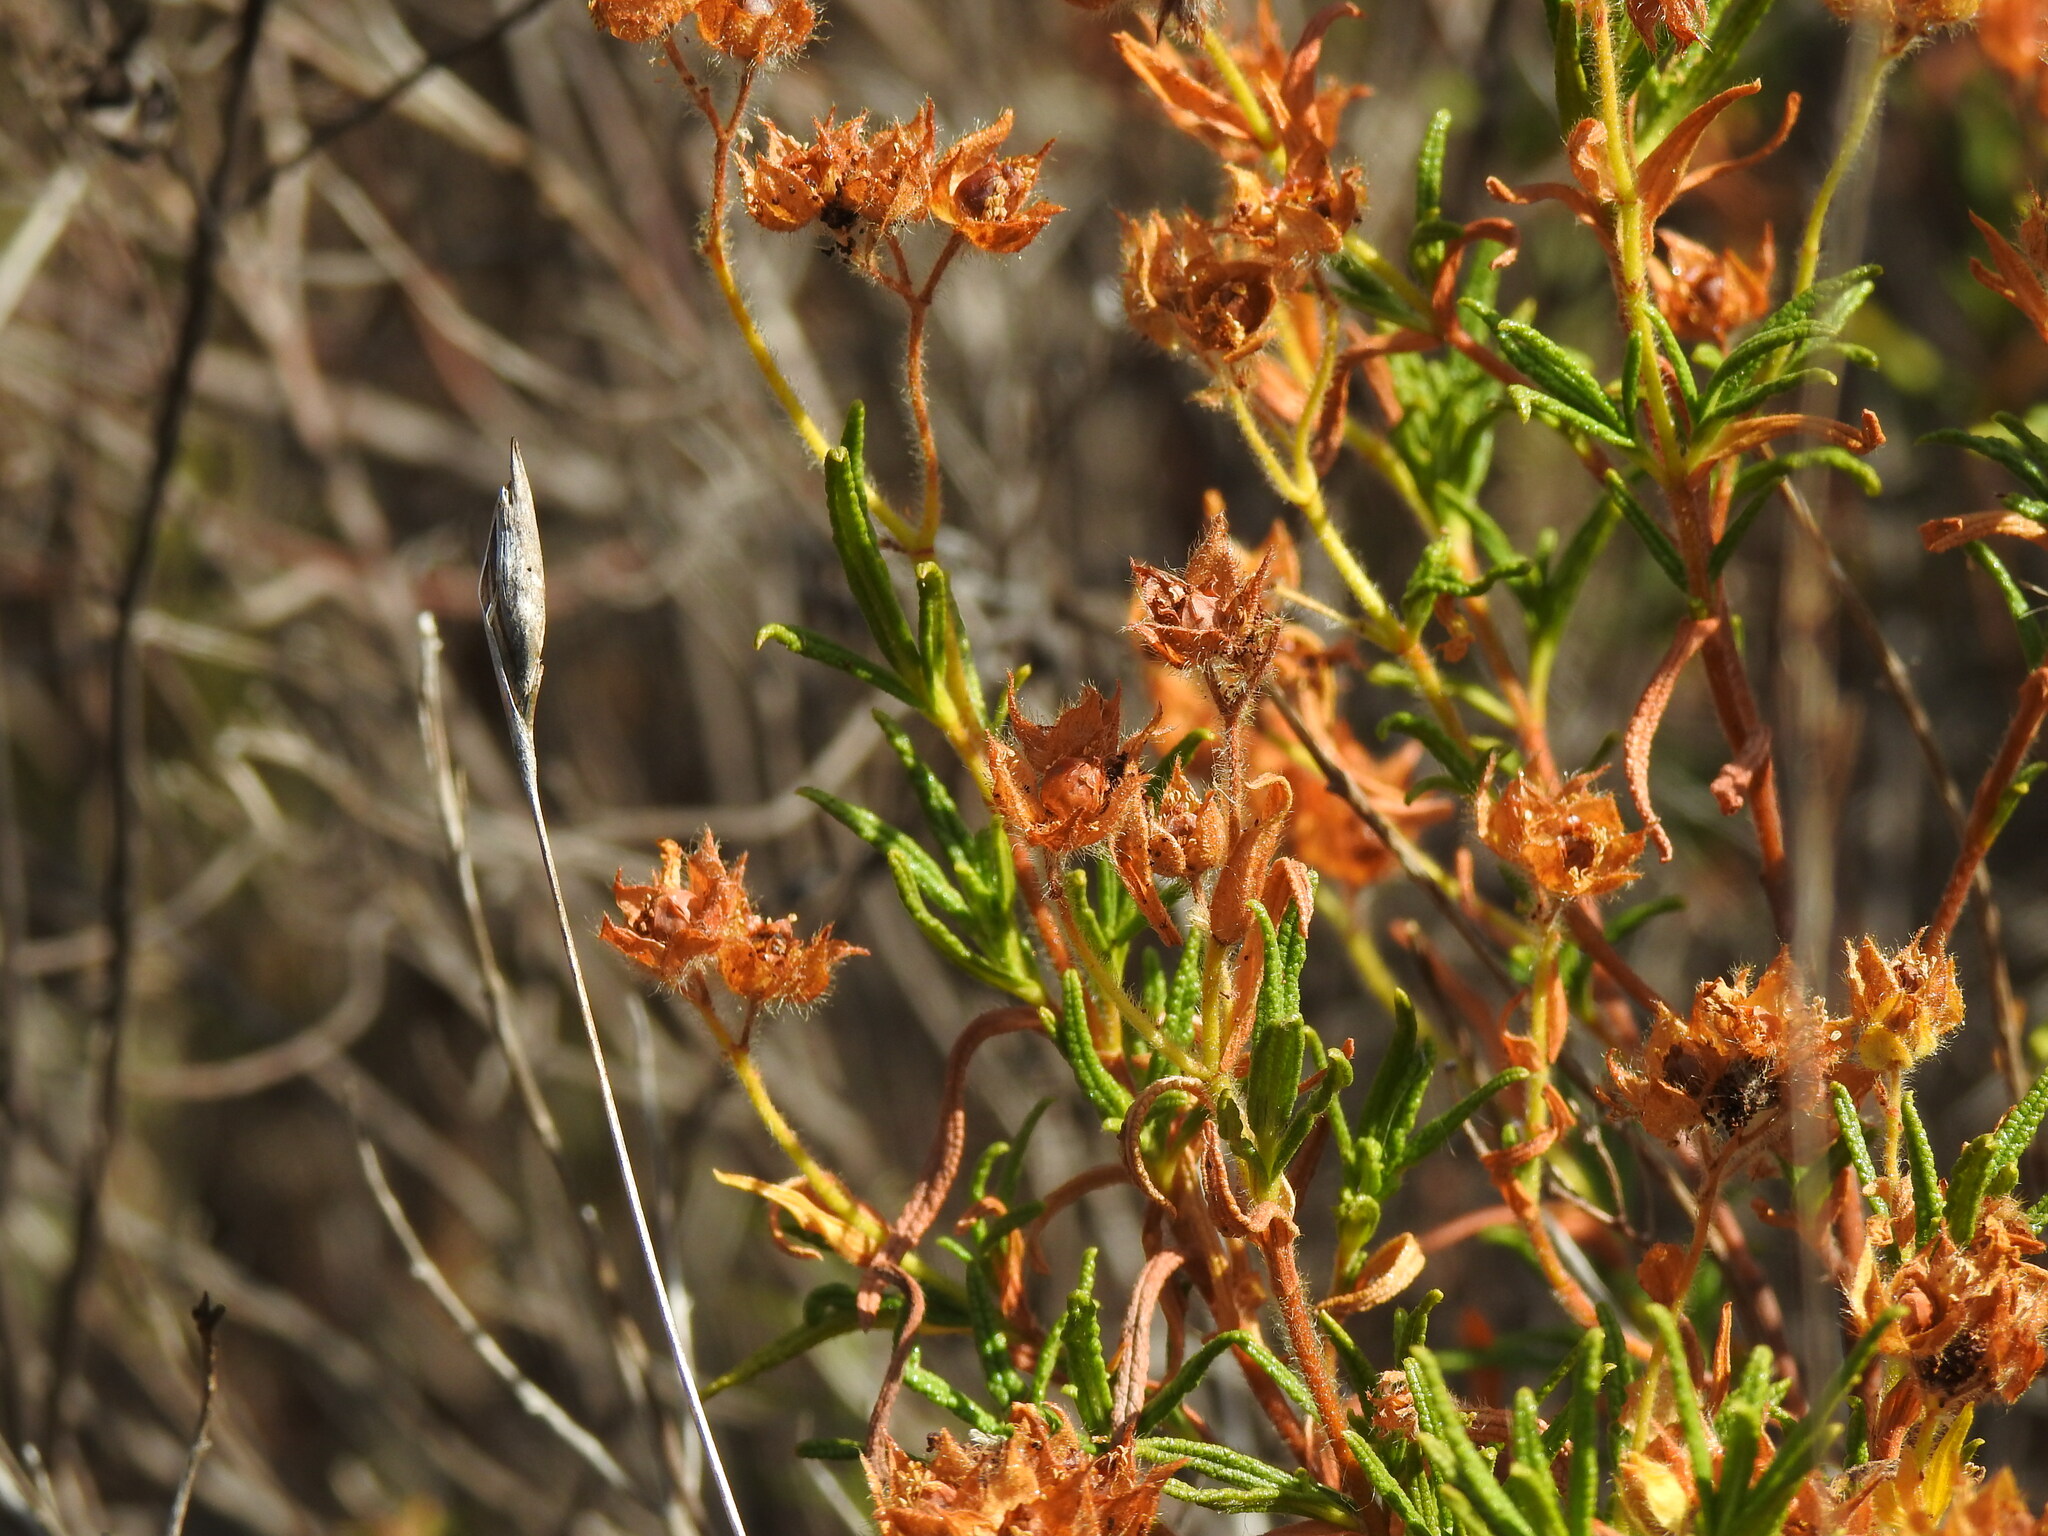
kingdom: Plantae
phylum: Tracheophyta
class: Magnoliopsida
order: Malvales
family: Cistaceae
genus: Cistus
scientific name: Cistus monspeliensis
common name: Montpelier cistus
